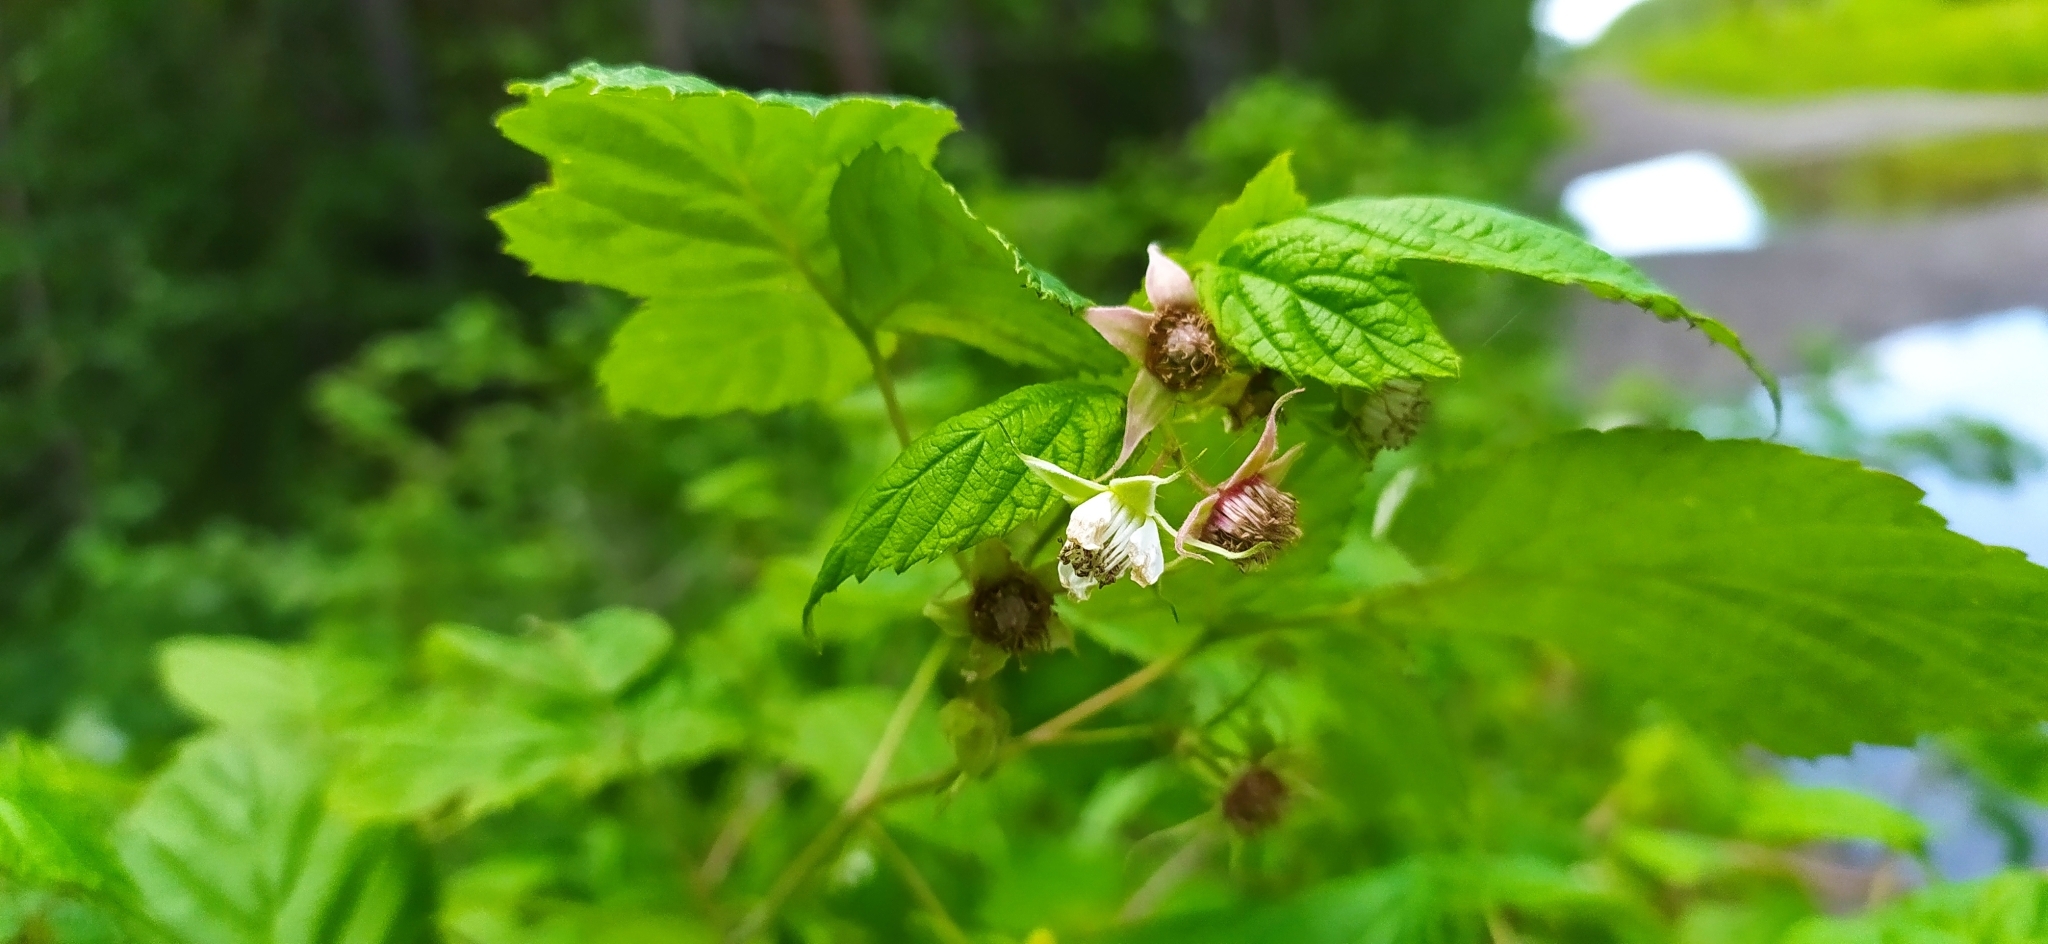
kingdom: Plantae
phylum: Tracheophyta
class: Magnoliopsida
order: Rosales
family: Rosaceae
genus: Rubus
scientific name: Rubus idaeus
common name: Raspberry
